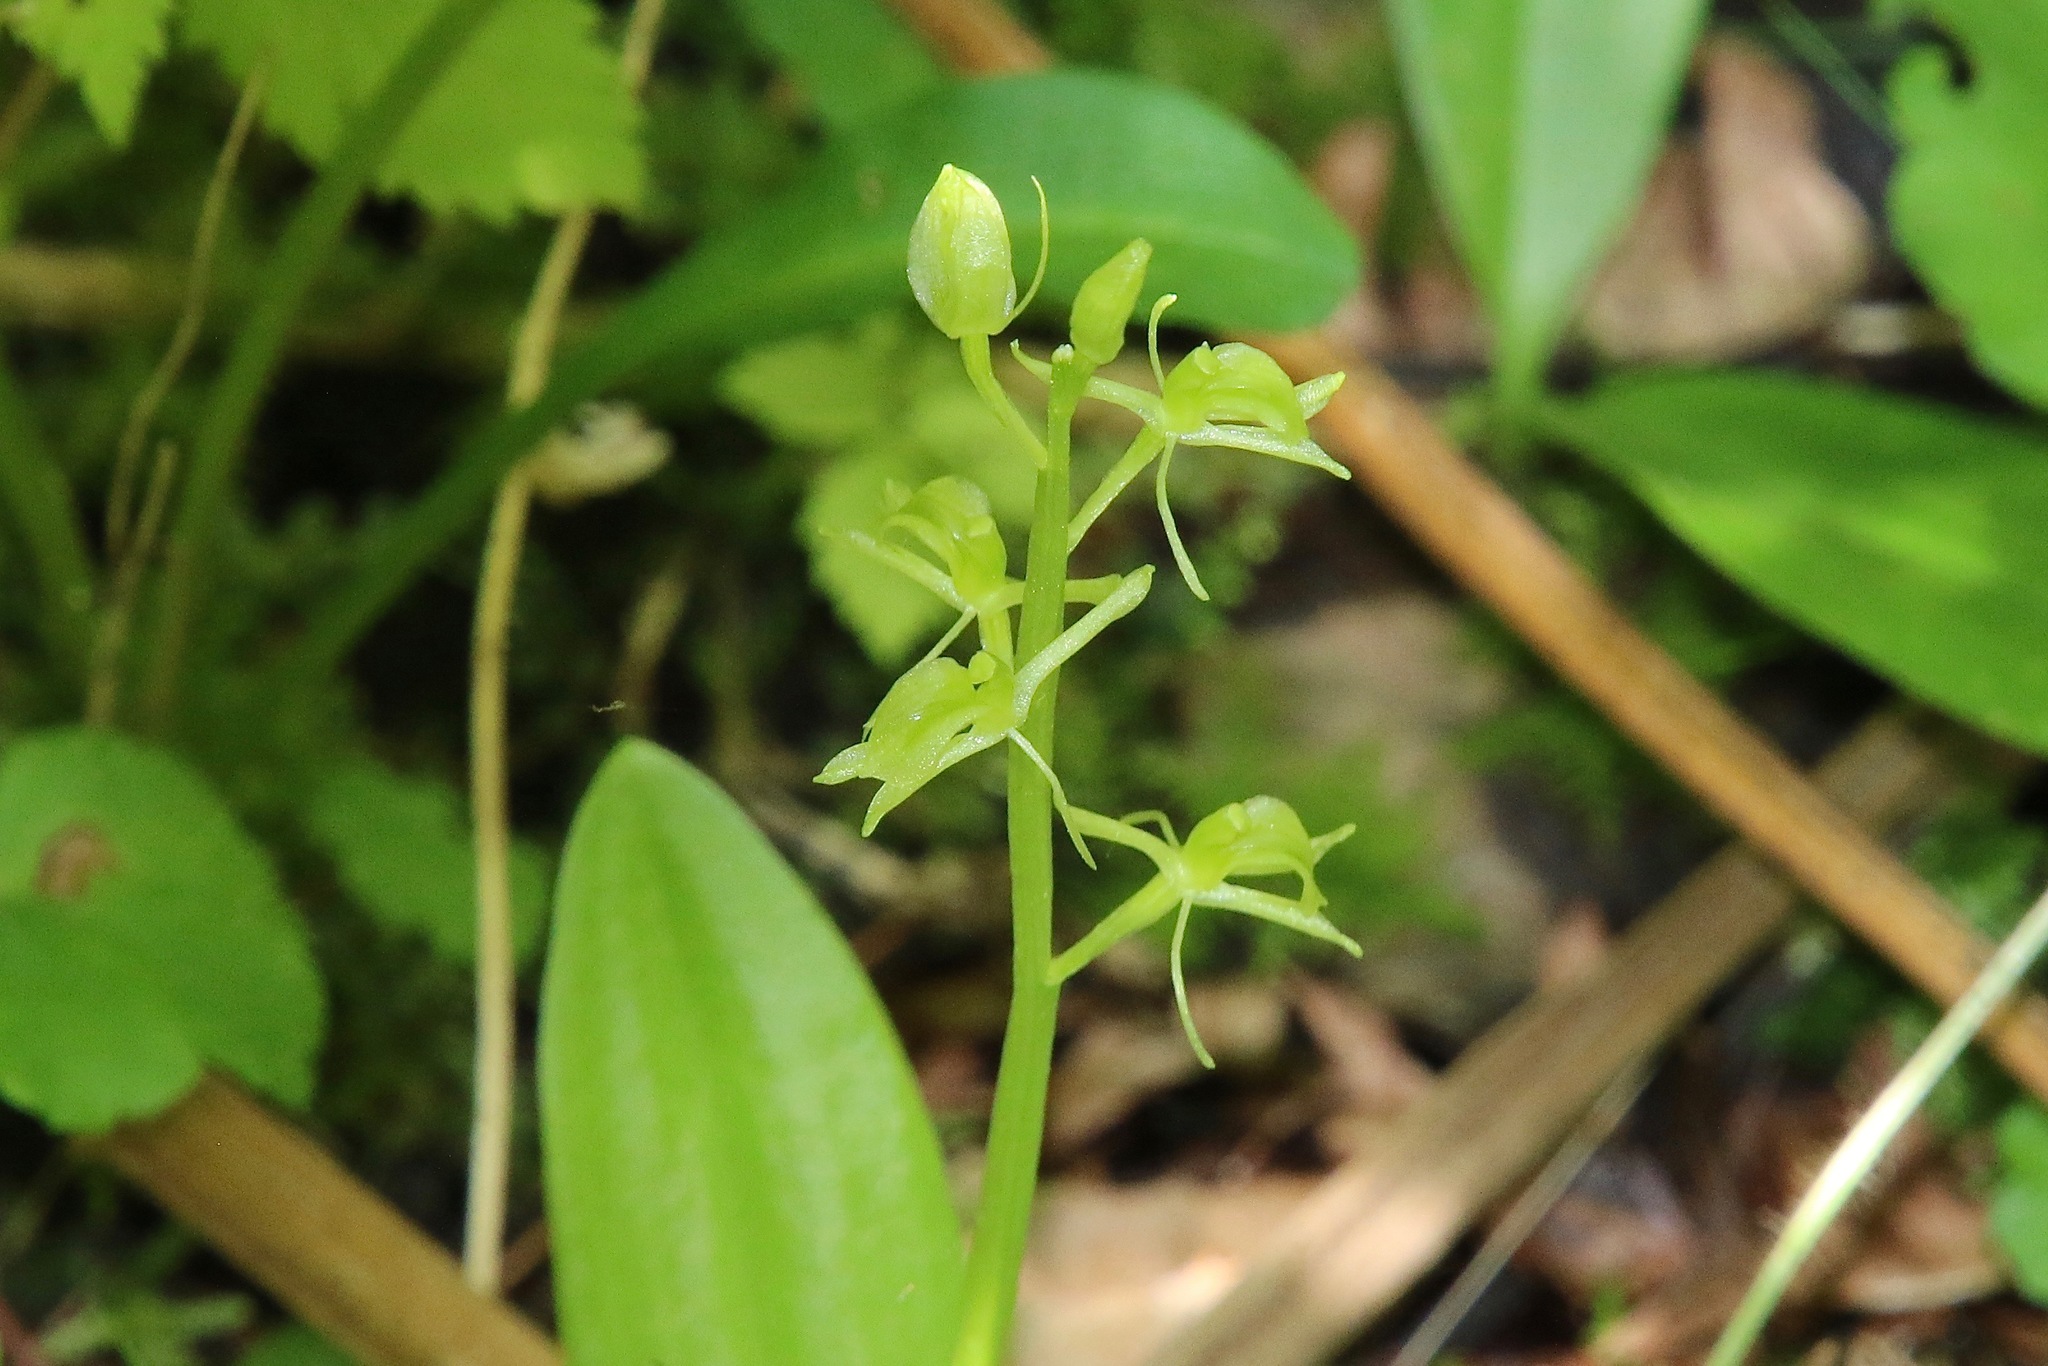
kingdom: Animalia
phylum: Arthropoda
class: Insecta
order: Coleoptera
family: Curculionidae
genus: Liparis
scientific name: Liparis loeselii
